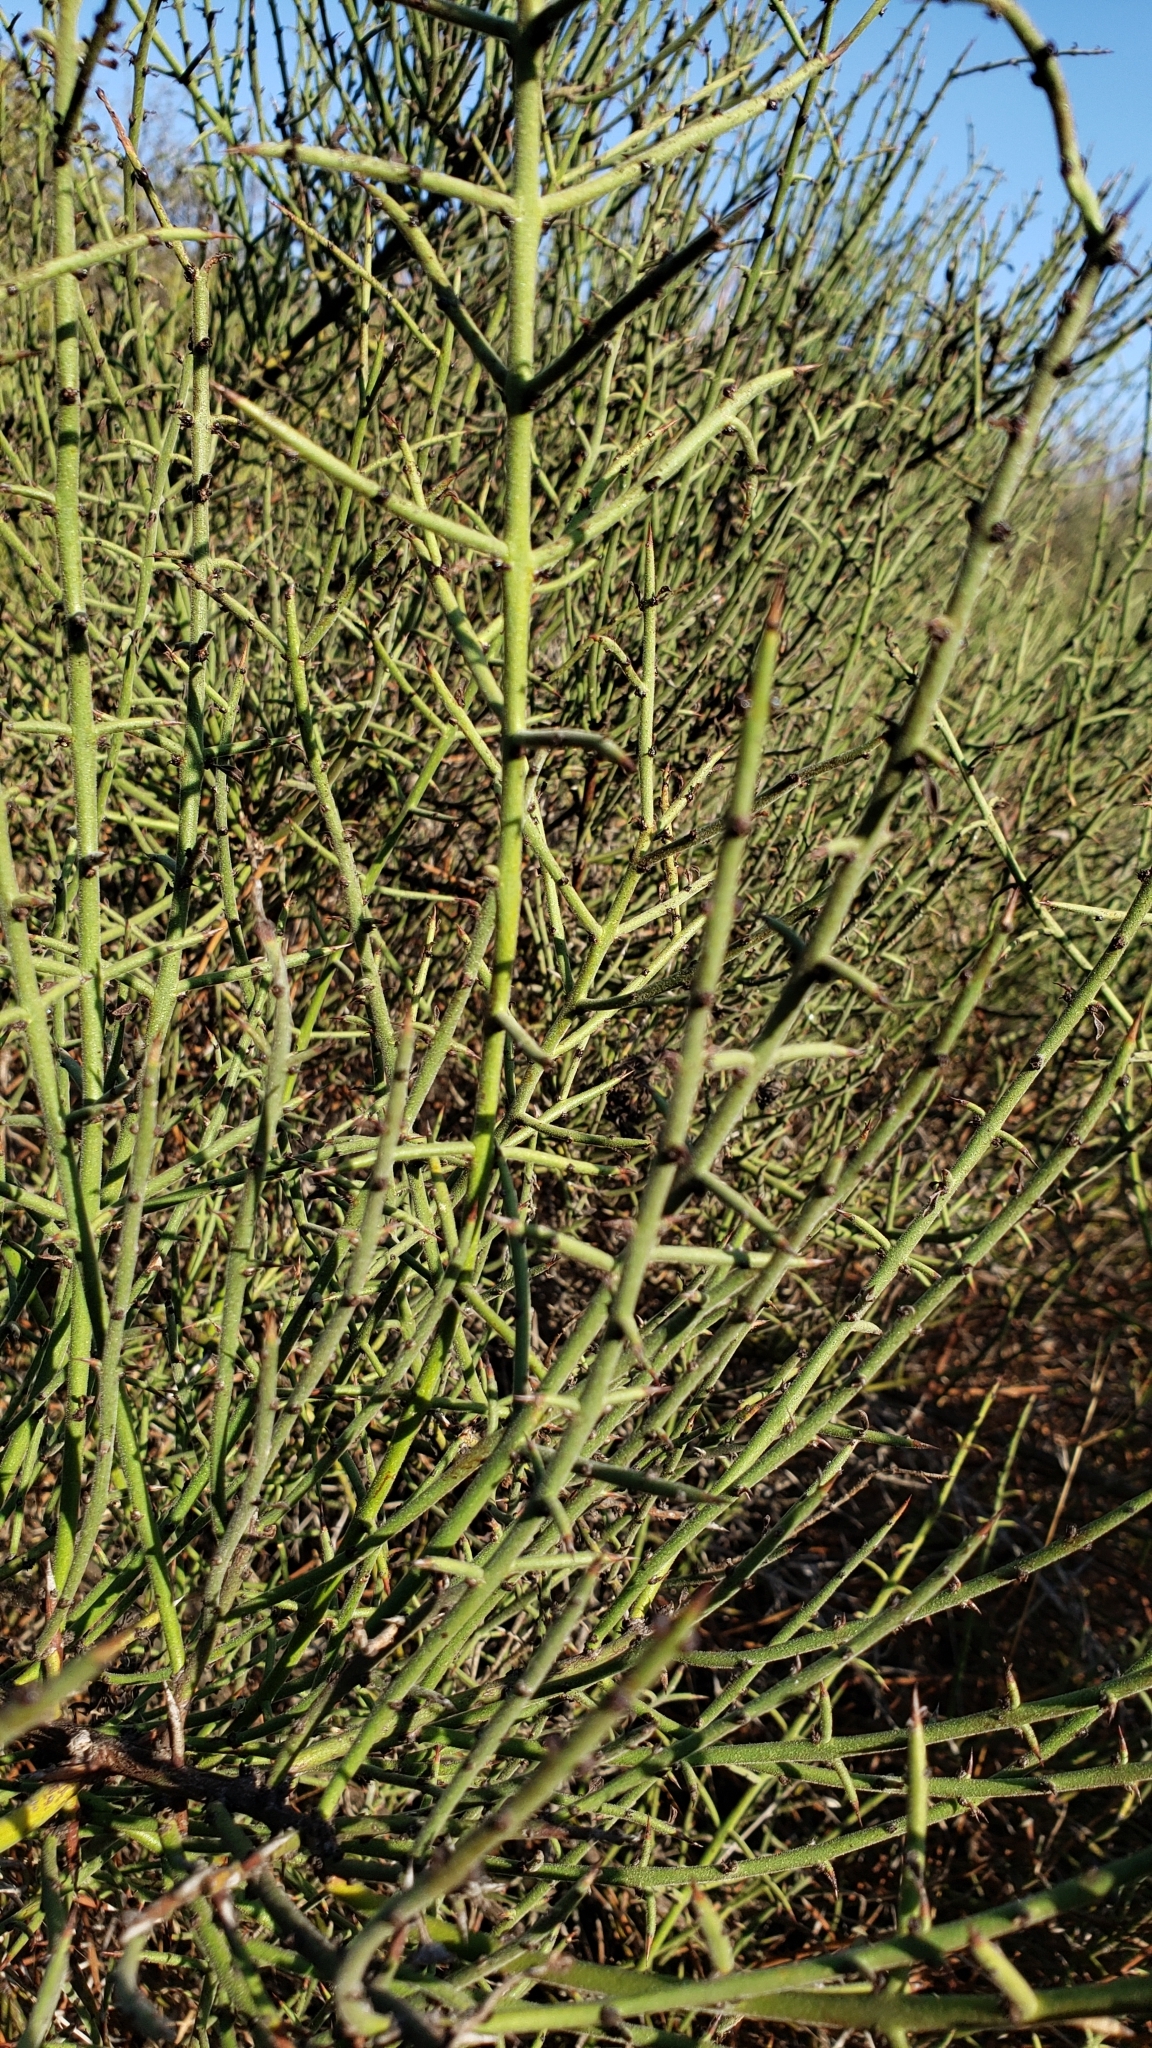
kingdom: Plantae
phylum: Tracheophyta
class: Magnoliopsida
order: Rosales
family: Rhamnaceae
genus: Adolphia
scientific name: Adolphia californica
